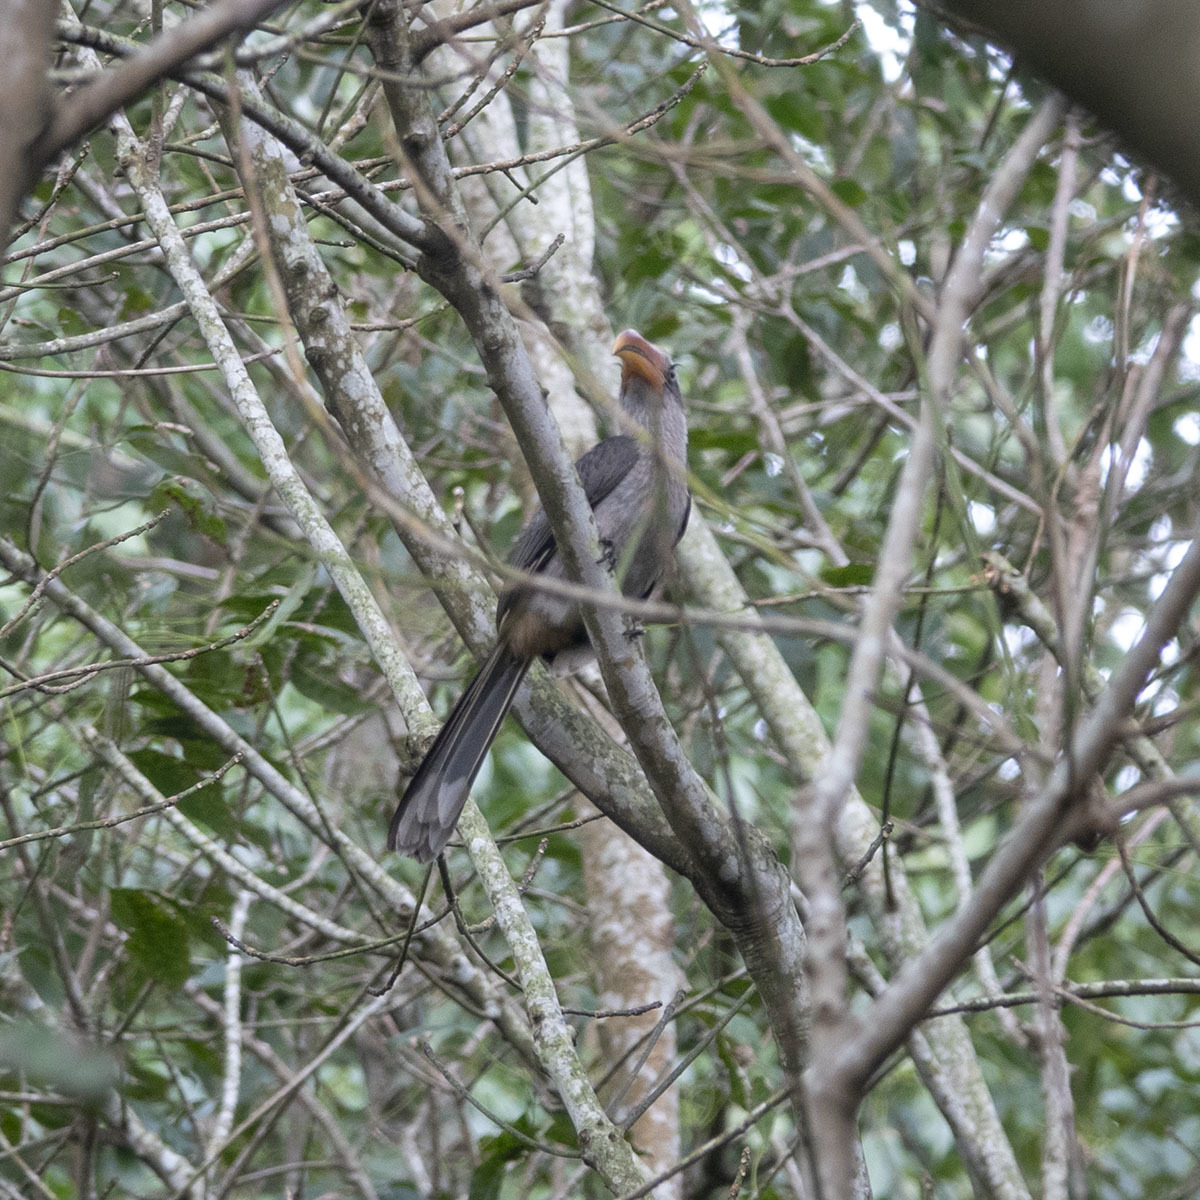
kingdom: Animalia
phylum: Chordata
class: Aves
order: Bucerotiformes
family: Bucerotidae
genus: Ocyceros
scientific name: Ocyceros griseus
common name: Malabar grey hornbill
